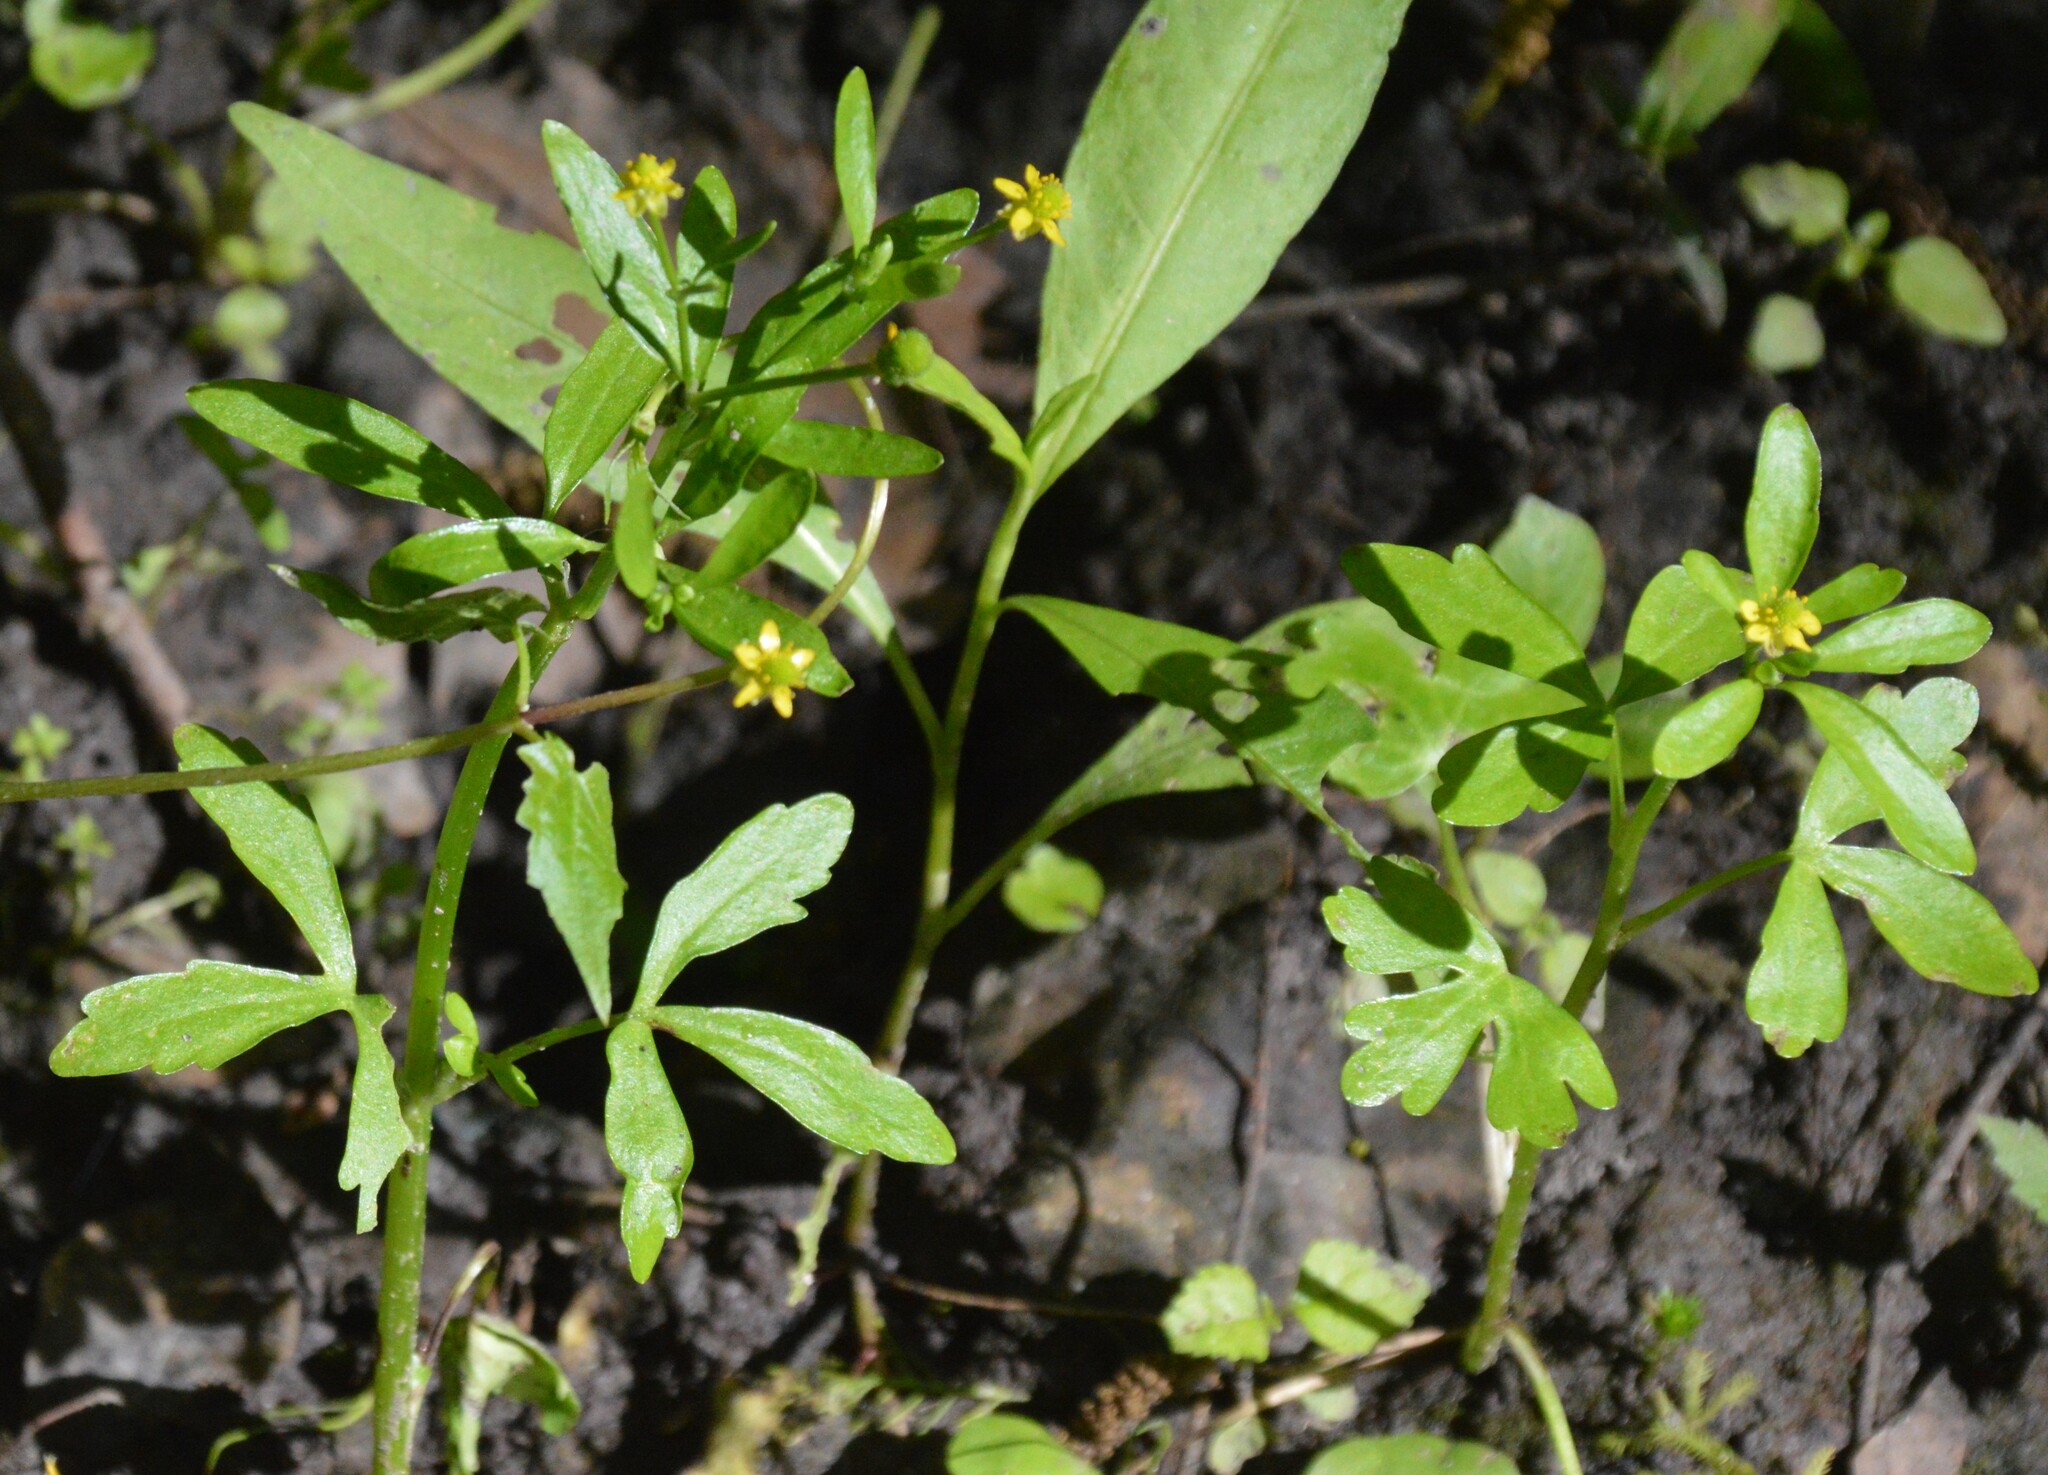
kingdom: Plantae
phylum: Tracheophyta
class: Magnoliopsida
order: Ranunculales
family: Ranunculaceae
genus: Ranunculus
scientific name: Ranunculus sceleratus
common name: Celery-leaved buttercup
